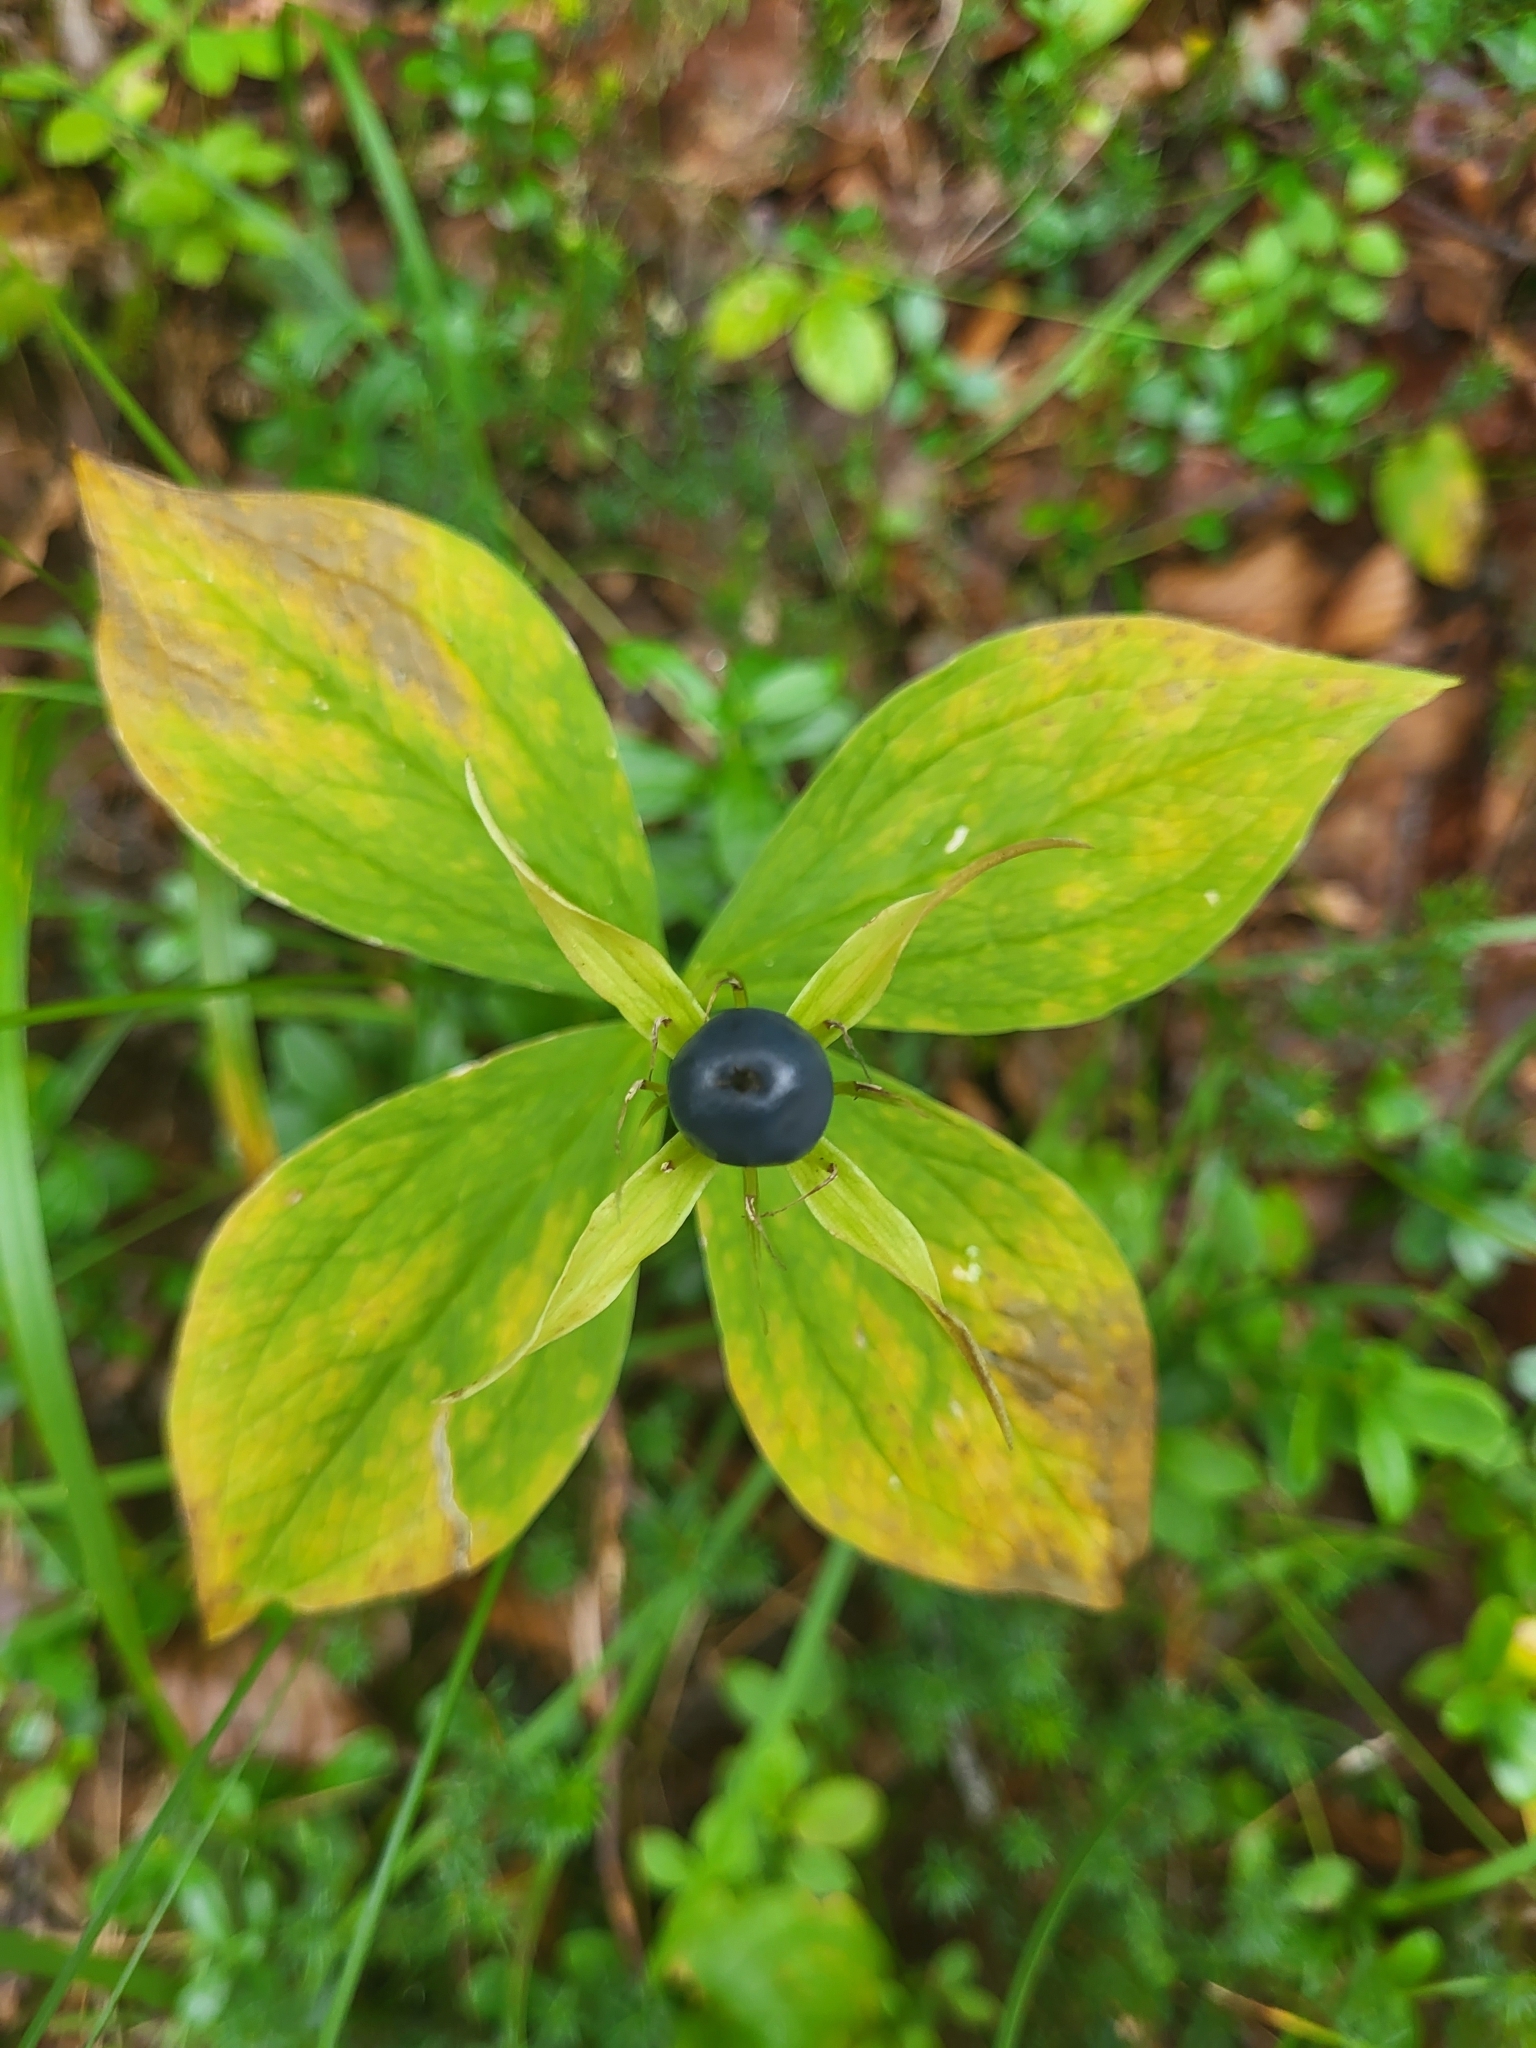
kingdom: Plantae
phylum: Tracheophyta
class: Liliopsida
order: Liliales
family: Melanthiaceae
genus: Paris
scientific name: Paris quadrifolia
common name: Herb-paris
